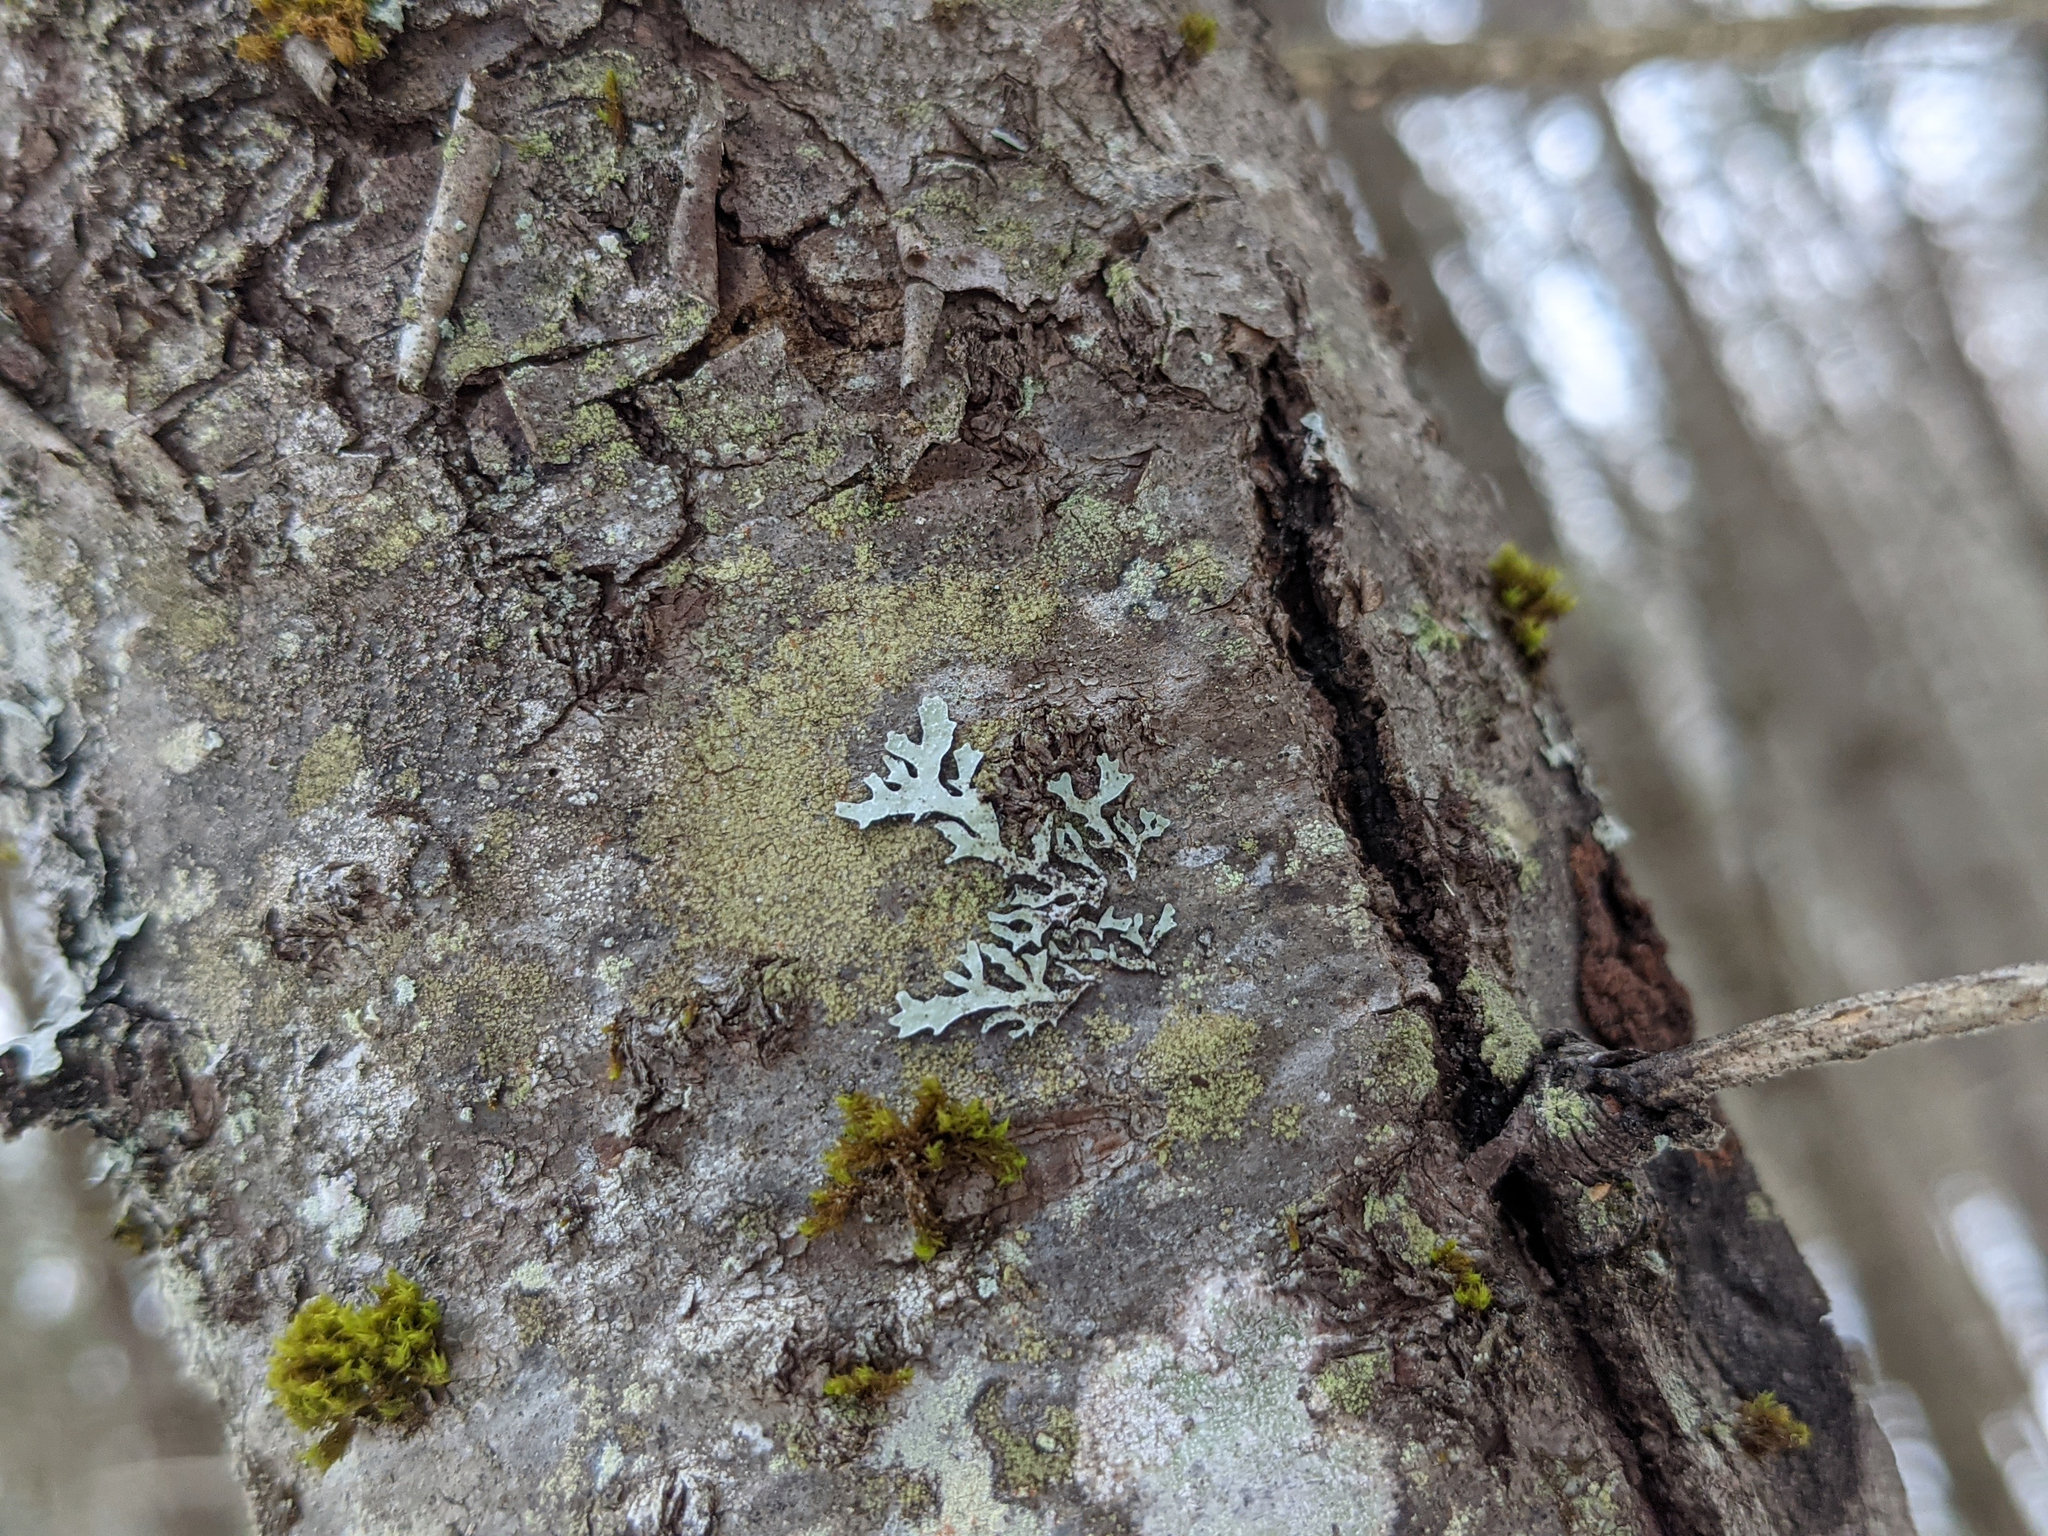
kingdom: Plantae
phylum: Bryophyta
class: Bryopsida
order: Orthotrichales
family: Orthotrichaceae
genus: Ulota
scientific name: Ulota crispa
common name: Crisped pincushion moss
